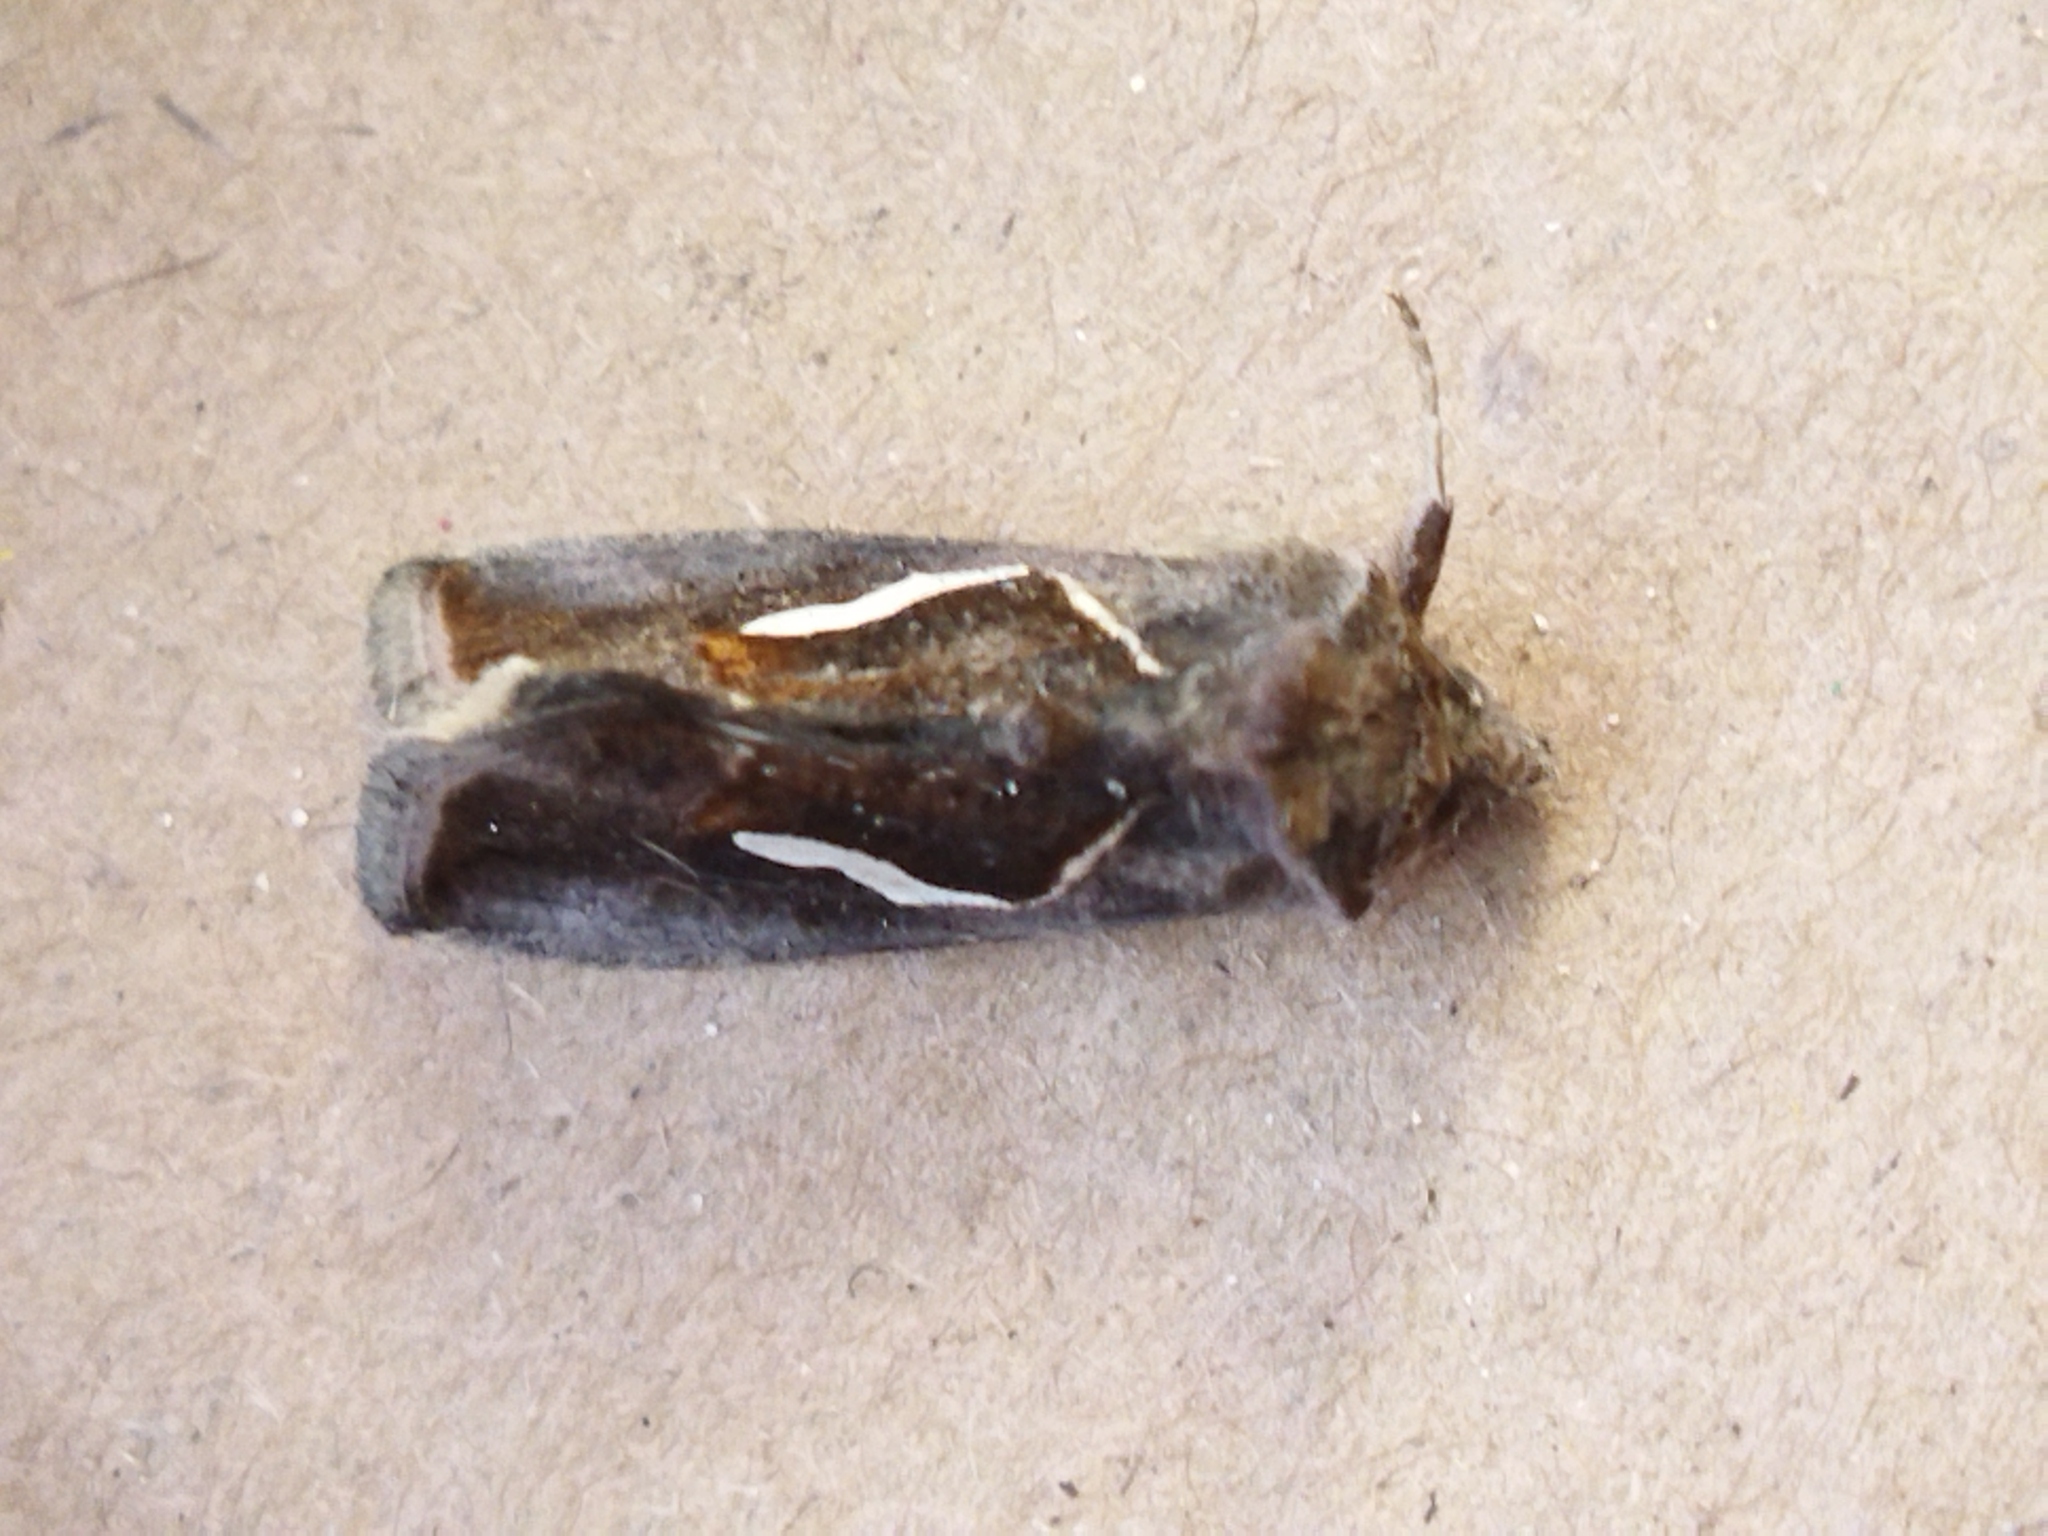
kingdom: Animalia
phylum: Arthropoda
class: Insecta
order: Lepidoptera
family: Noctuidae
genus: Macdunnoughia
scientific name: Macdunnoughia confusa
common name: Dewick's plusia
